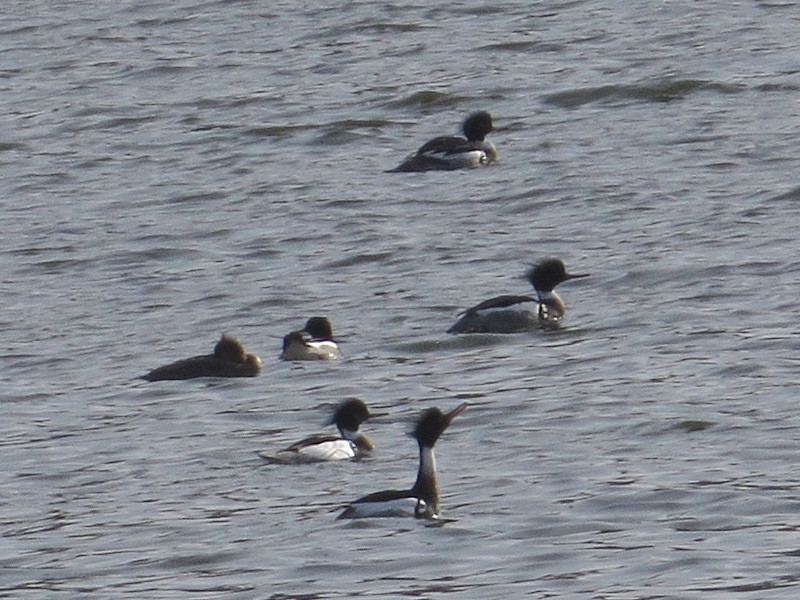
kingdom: Animalia
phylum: Chordata
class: Aves
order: Anseriformes
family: Anatidae
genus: Mergus
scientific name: Mergus serrator
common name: Red-breasted merganser
